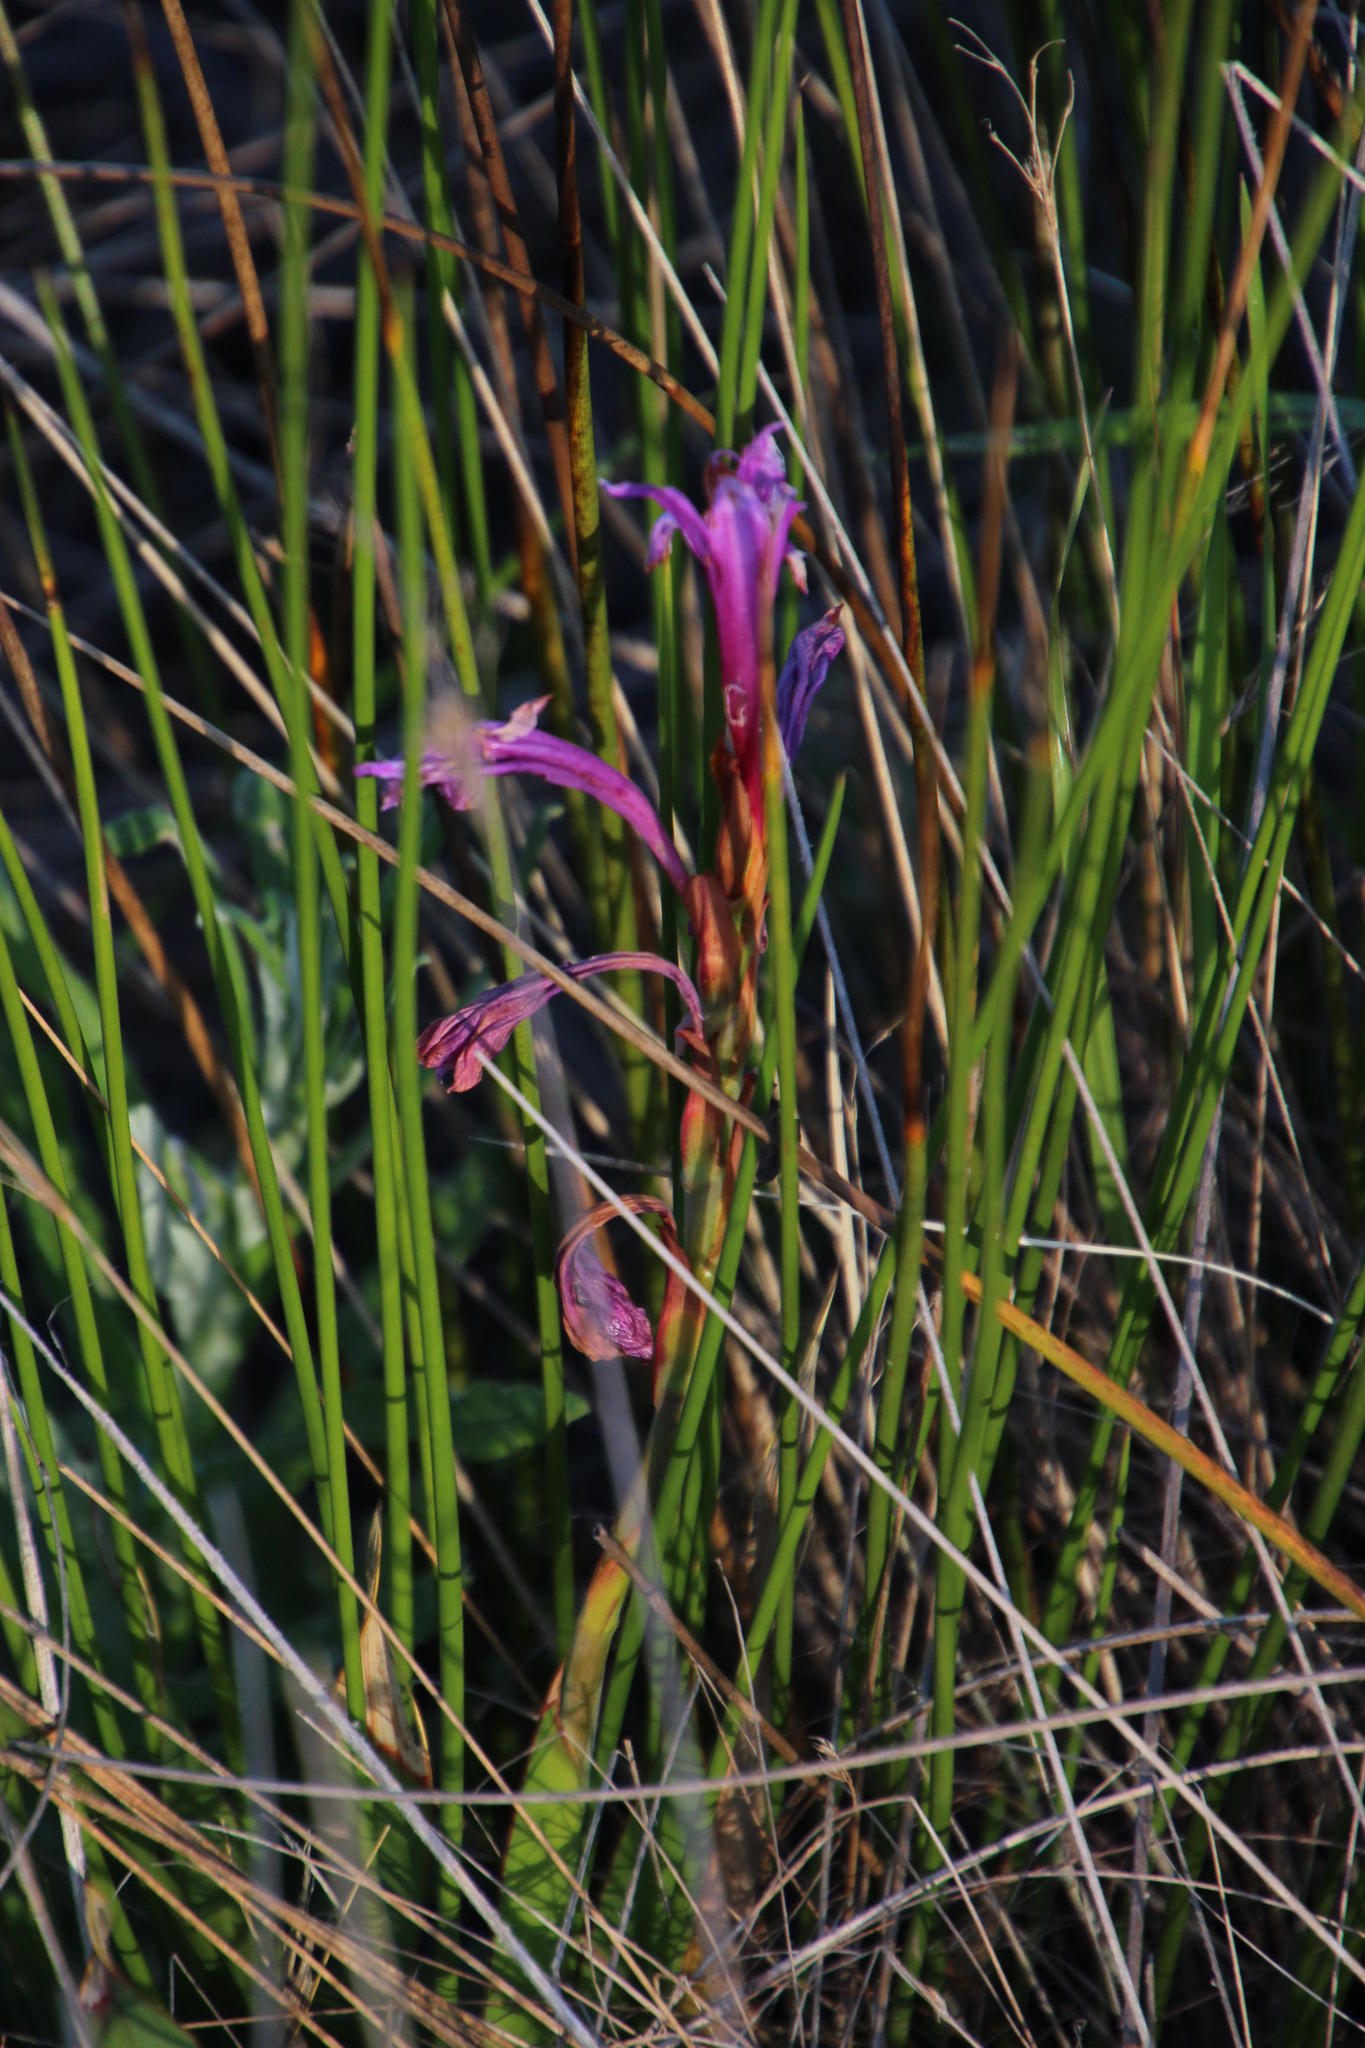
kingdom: Plantae
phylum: Tracheophyta
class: Liliopsida
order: Asparagales
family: Iridaceae
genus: Watsonia
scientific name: Watsonia humilis
